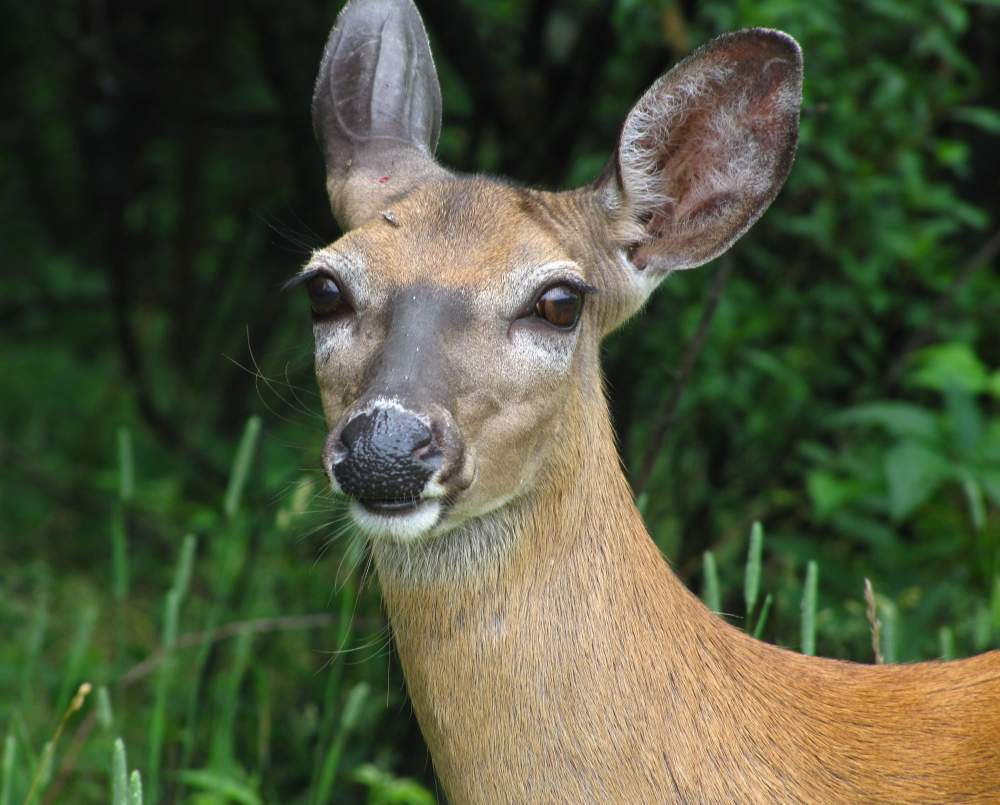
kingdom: Animalia
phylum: Chordata
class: Mammalia
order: Artiodactyla
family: Cervidae
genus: Odocoileus
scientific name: Odocoileus virginianus
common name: White-tailed deer
